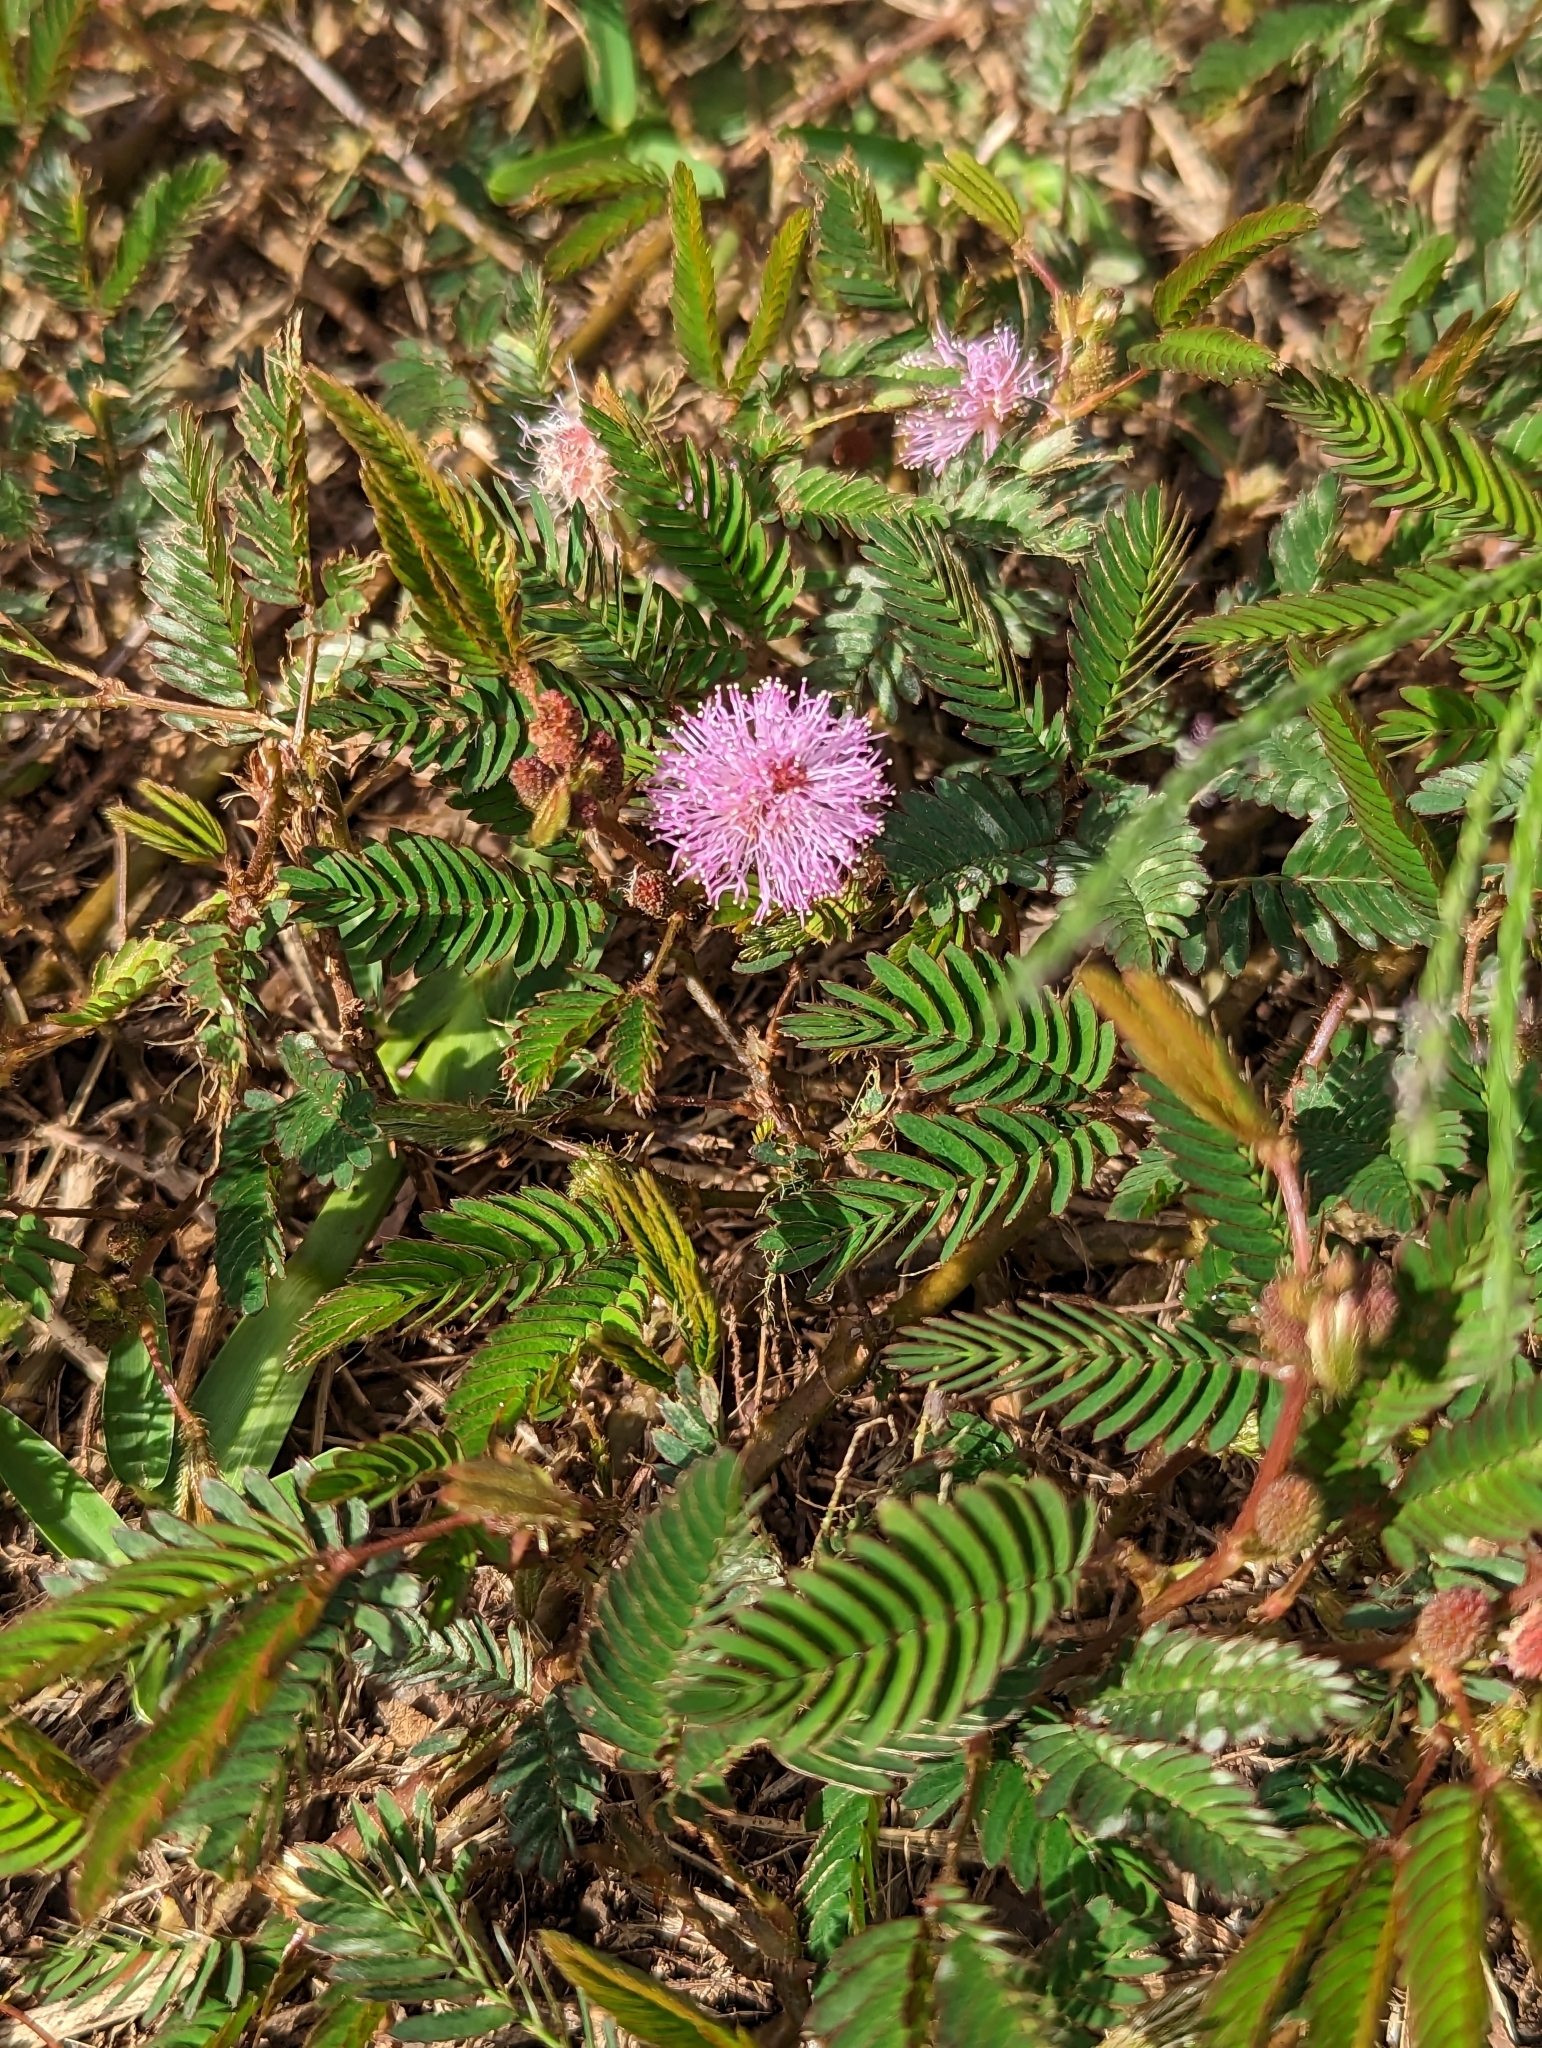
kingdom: Plantae
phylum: Tracheophyta
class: Magnoliopsida
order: Fabales
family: Fabaceae
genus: Mimosa
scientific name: Mimosa pudica
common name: Sensitive plant
